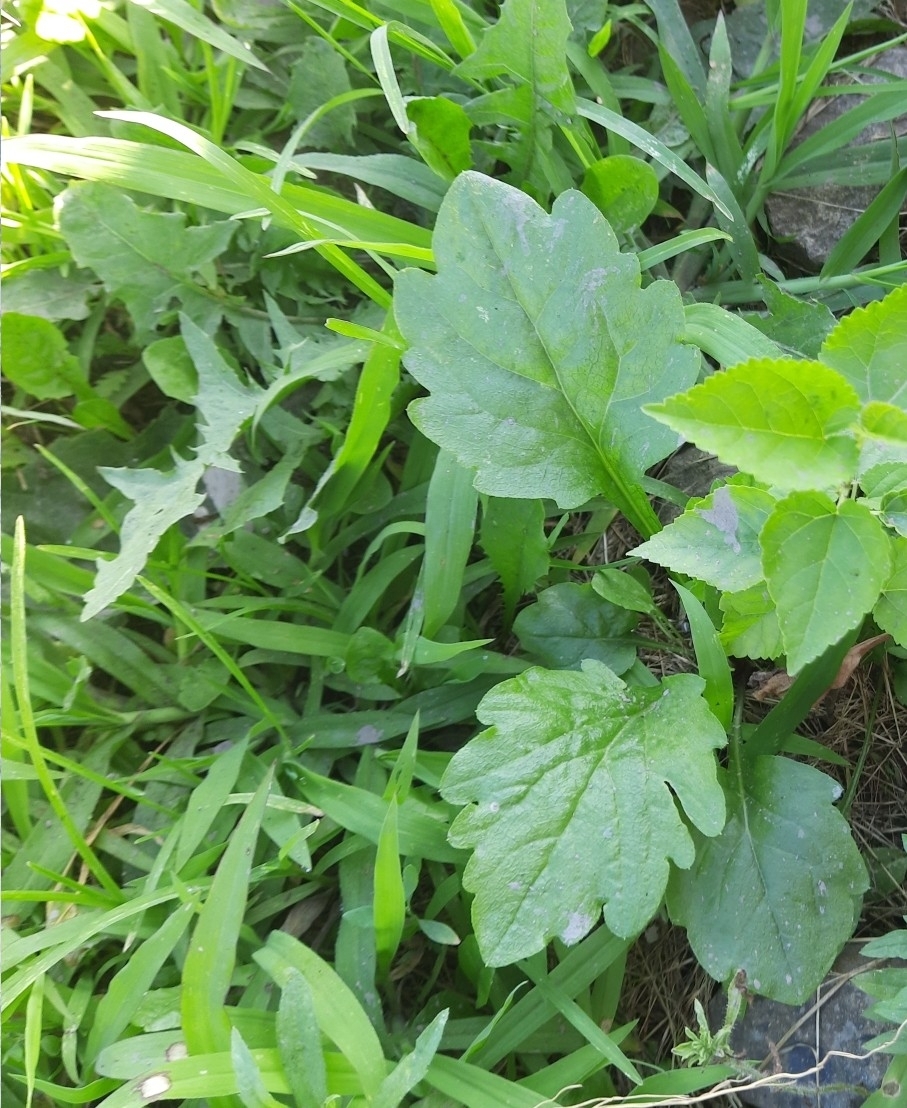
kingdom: Plantae
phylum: Tracheophyta
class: Magnoliopsida
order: Asterales
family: Asteraceae
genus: Erigeron
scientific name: Erigeron annuus
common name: Tall fleabane
